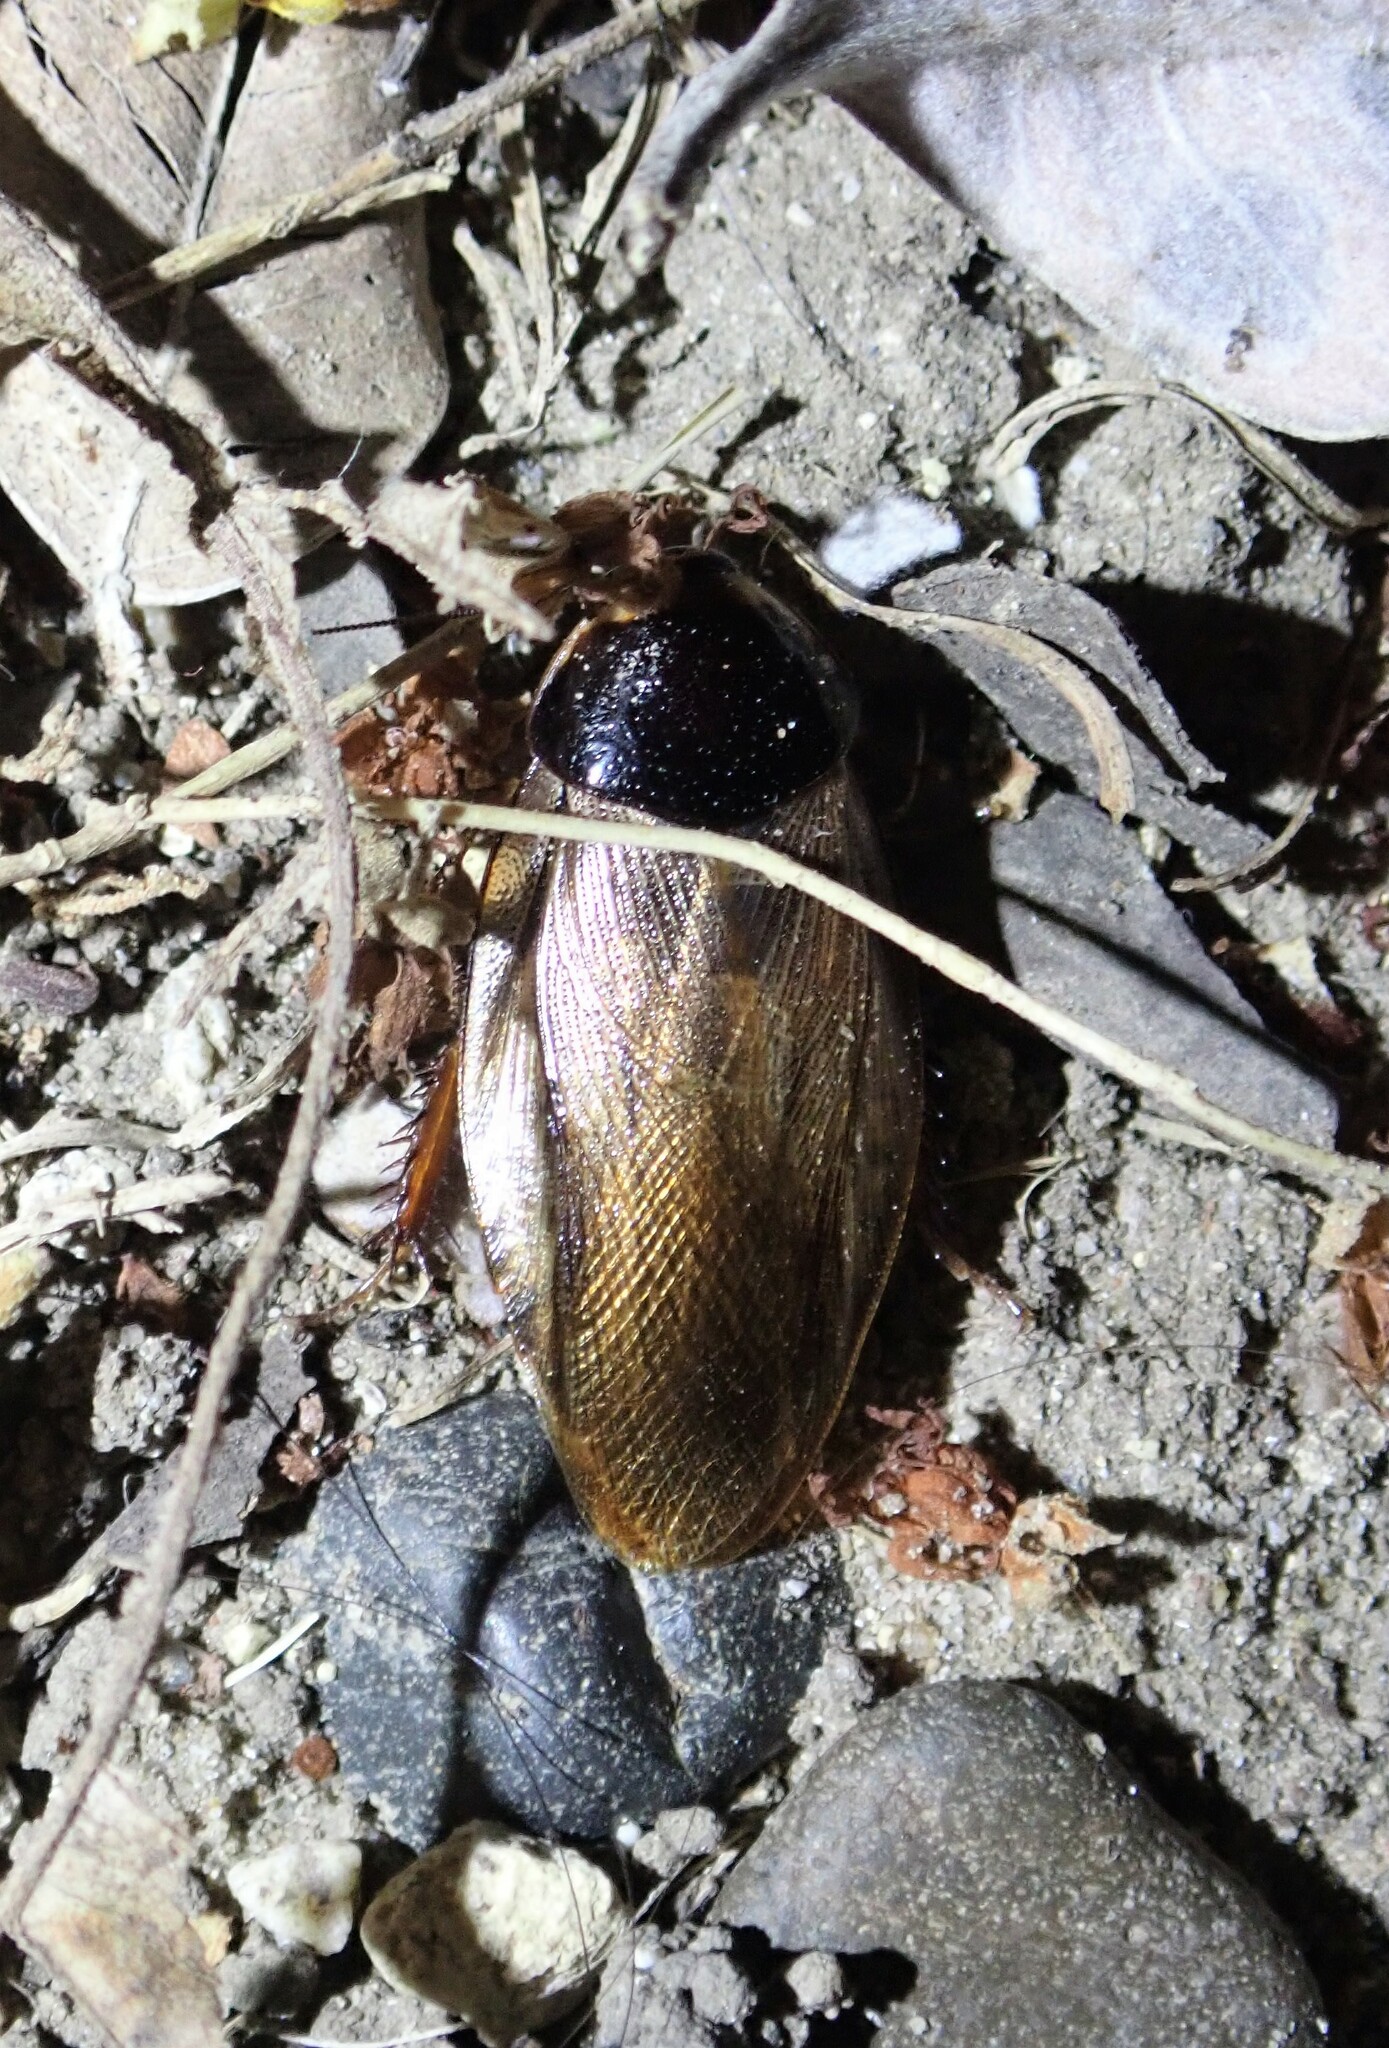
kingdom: Animalia
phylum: Arthropoda
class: Insecta
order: Blattodea
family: Blaberidae
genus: Pycnoscelus
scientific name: Pycnoscelus surinamensis
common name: Surinam cockroach
